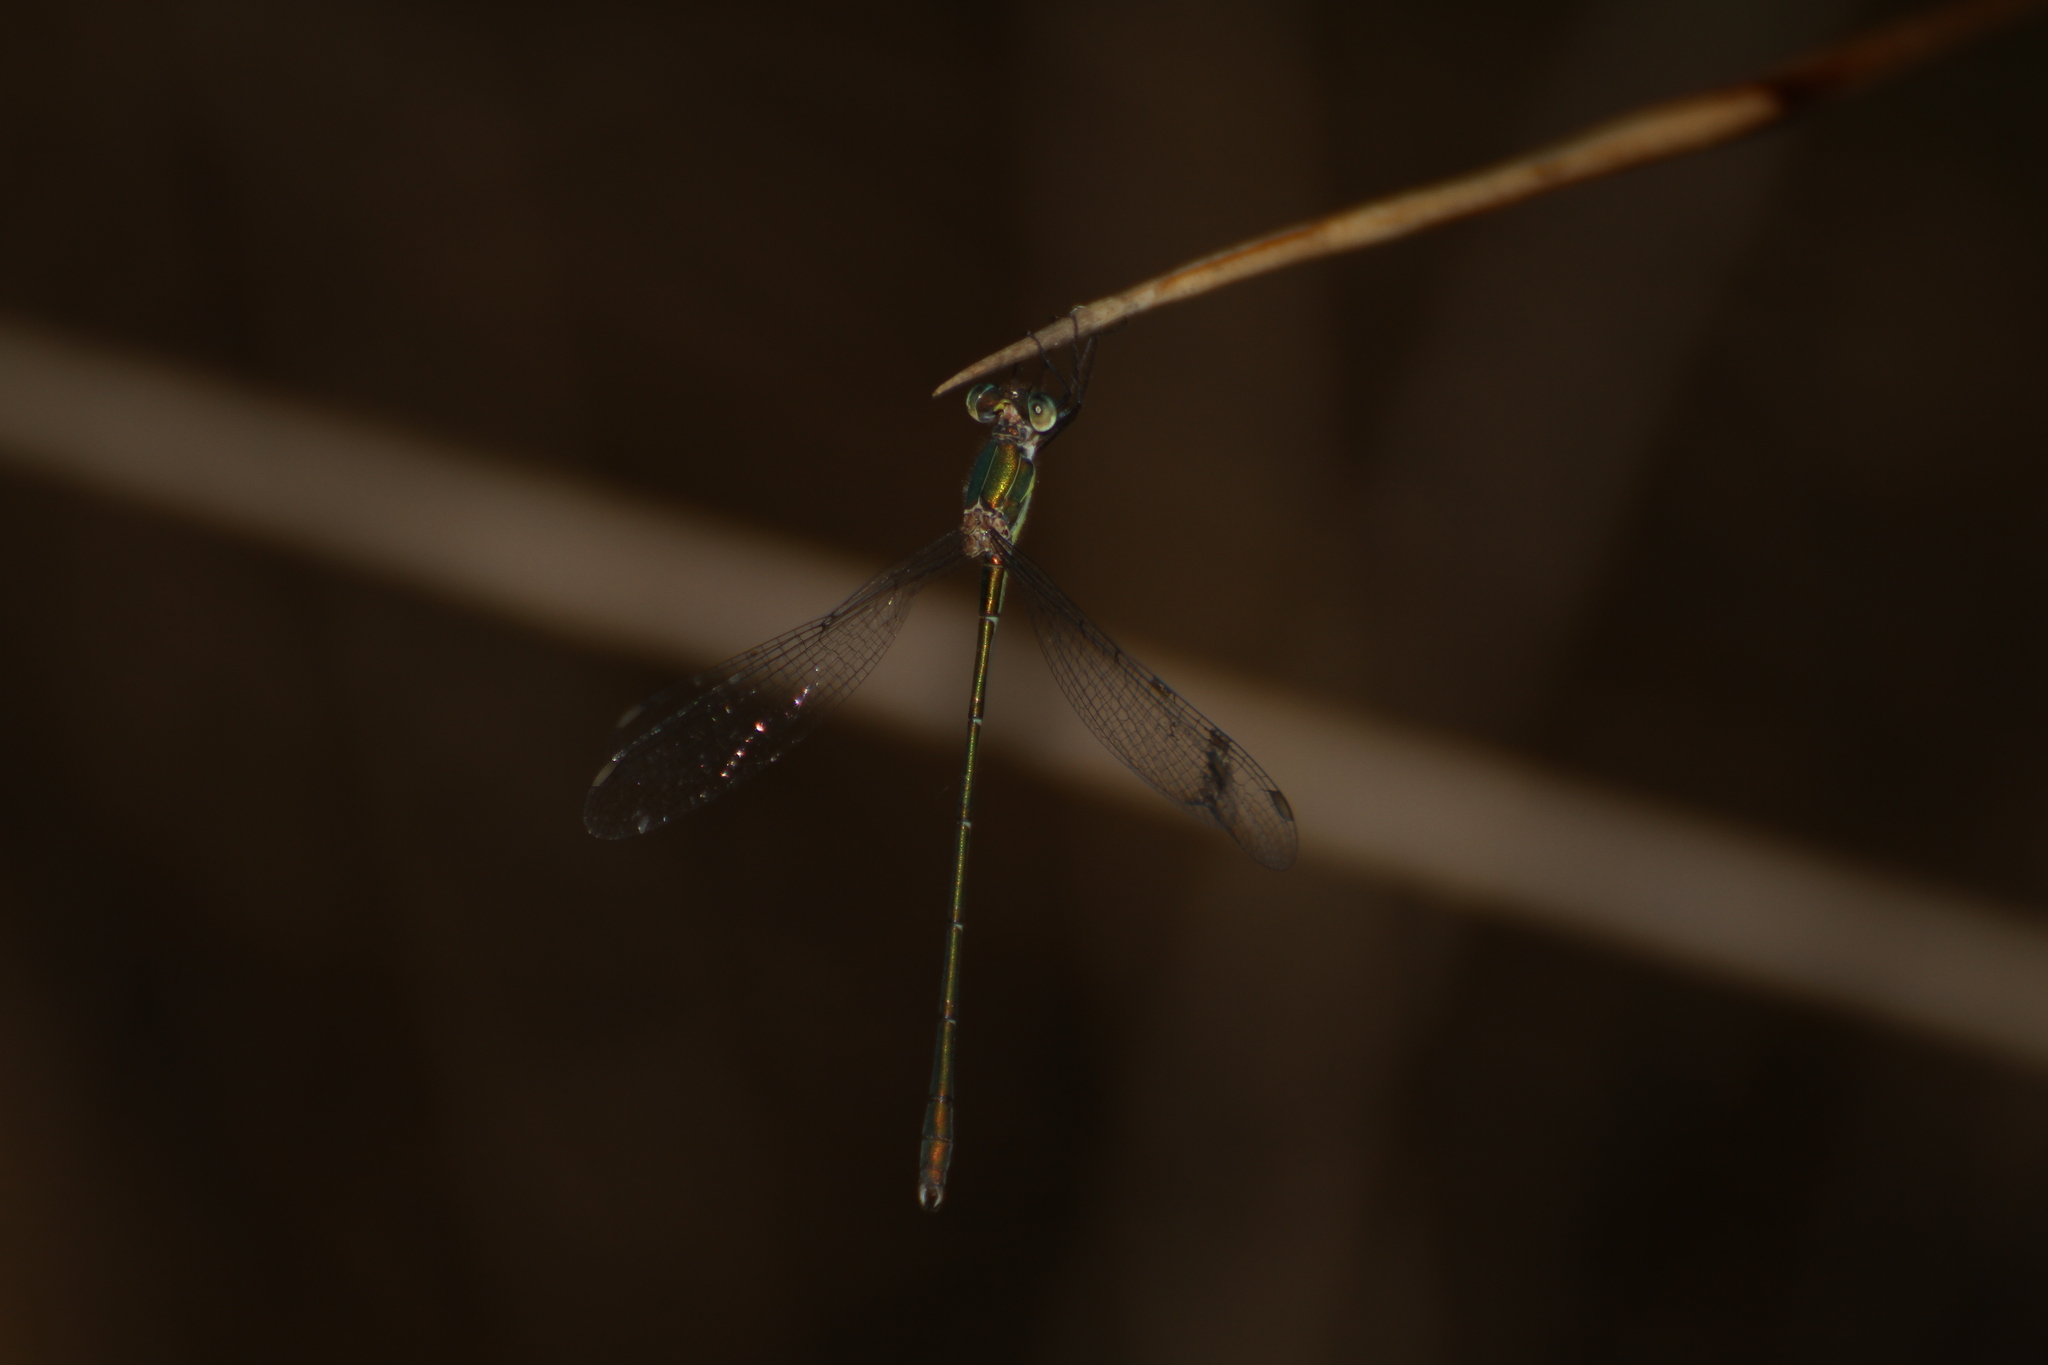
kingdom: Animalia
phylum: Arthropoda
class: Insecta
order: Odonata
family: Lestidae
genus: Chalcolestes
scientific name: Chalcolestes viridis
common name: Green emerald damselfly
